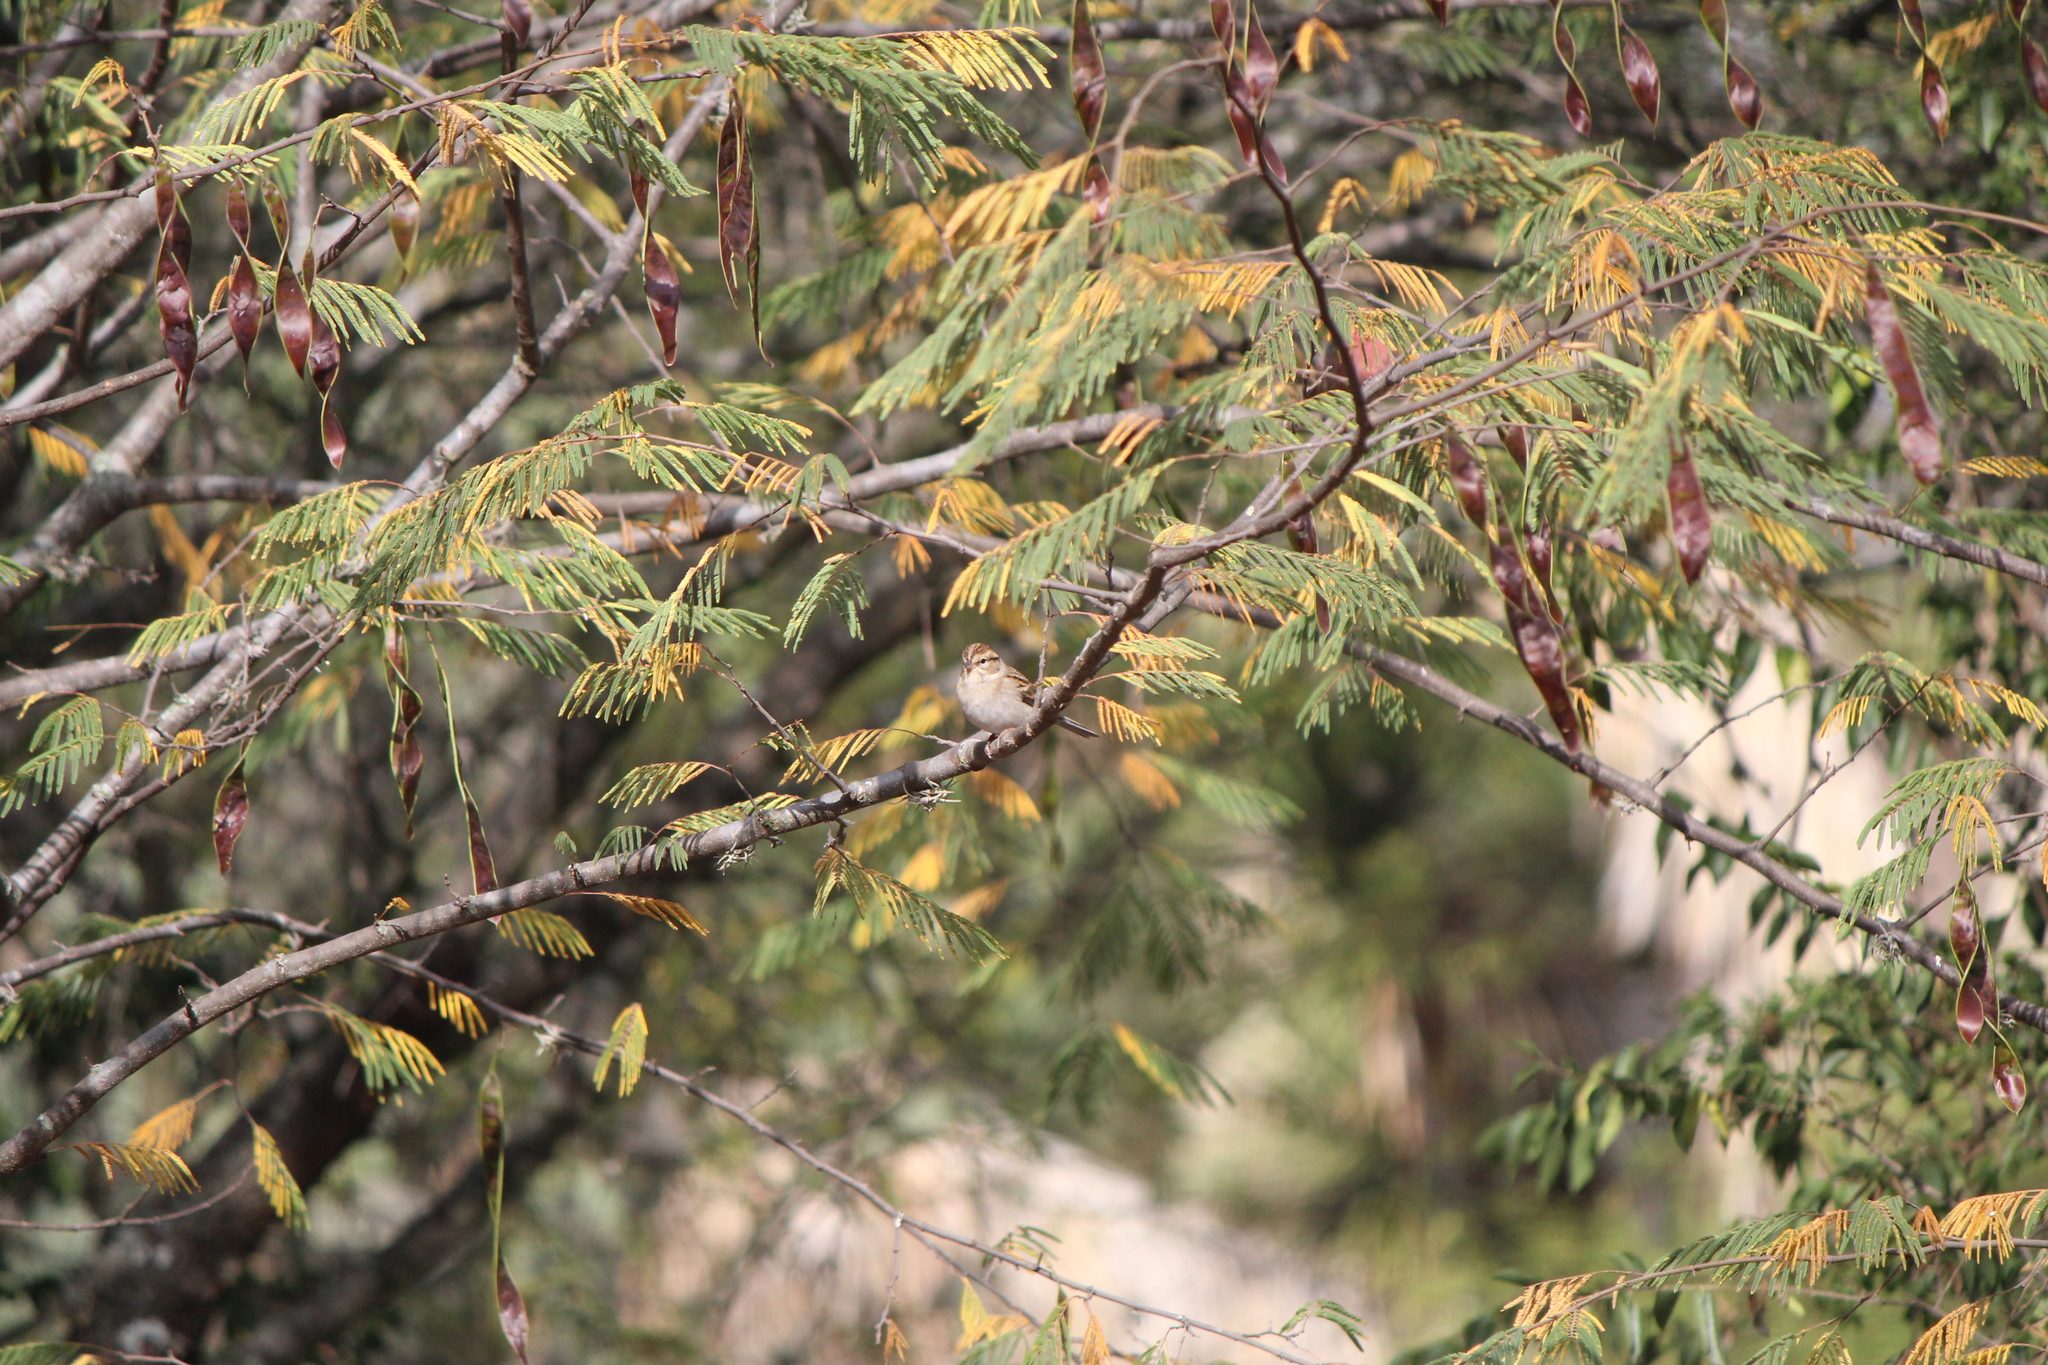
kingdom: Animalia
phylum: Chordata
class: Aves
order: Passeriformes
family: Passerellidae
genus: Spizella
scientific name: Spizella passerina
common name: Chipping sparrow
